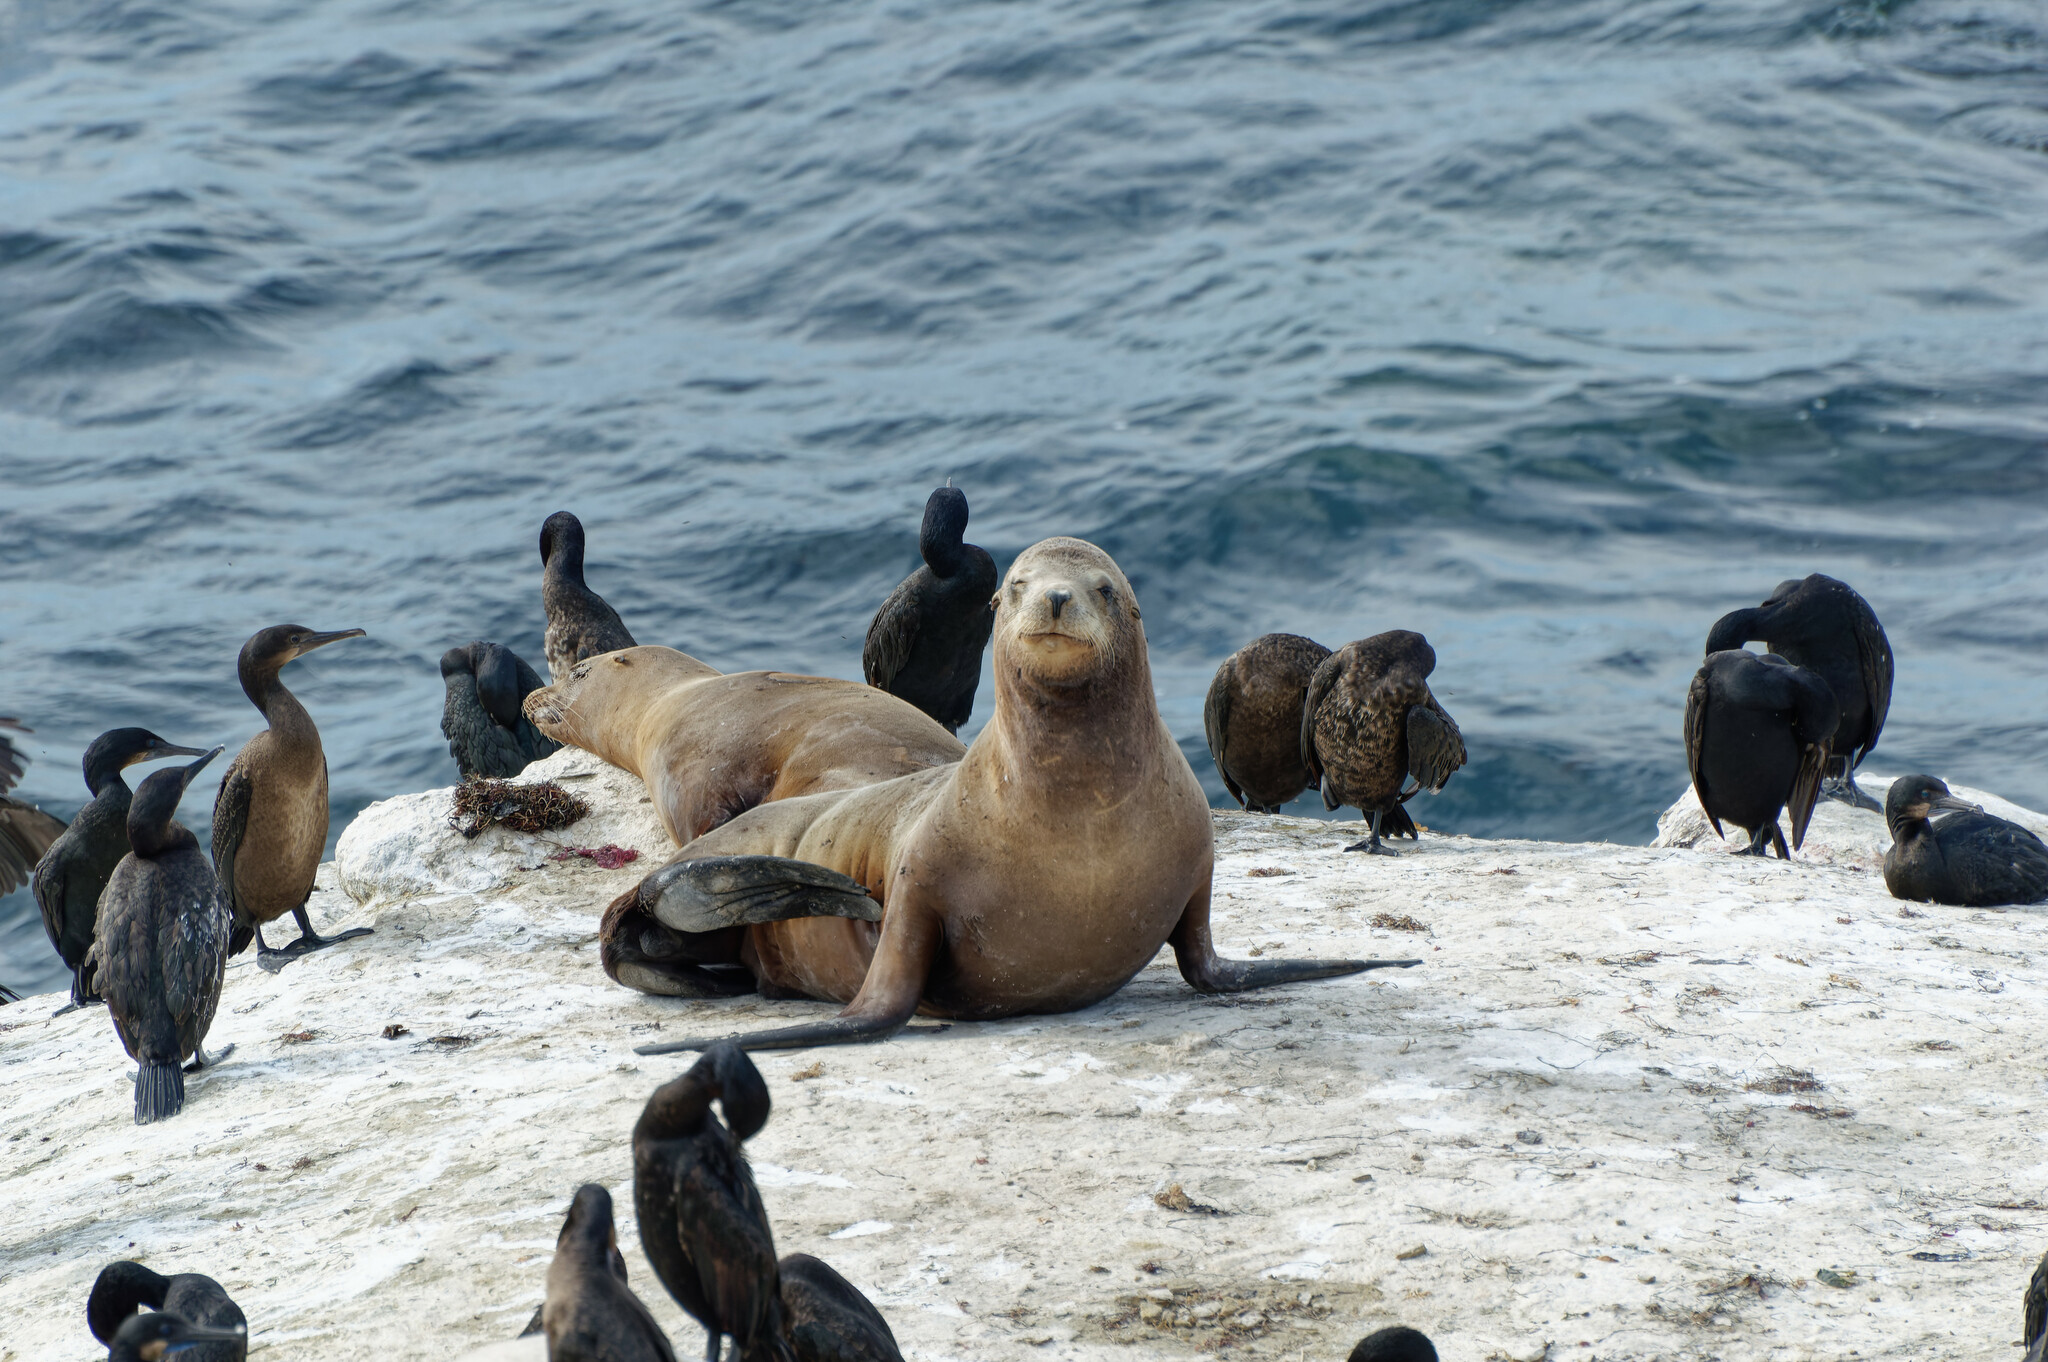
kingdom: Animalia
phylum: Chordata
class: Mammalia
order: Carnivora
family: Otariidae
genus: Zalophus
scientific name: Zalophus californianus
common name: California sea lion
